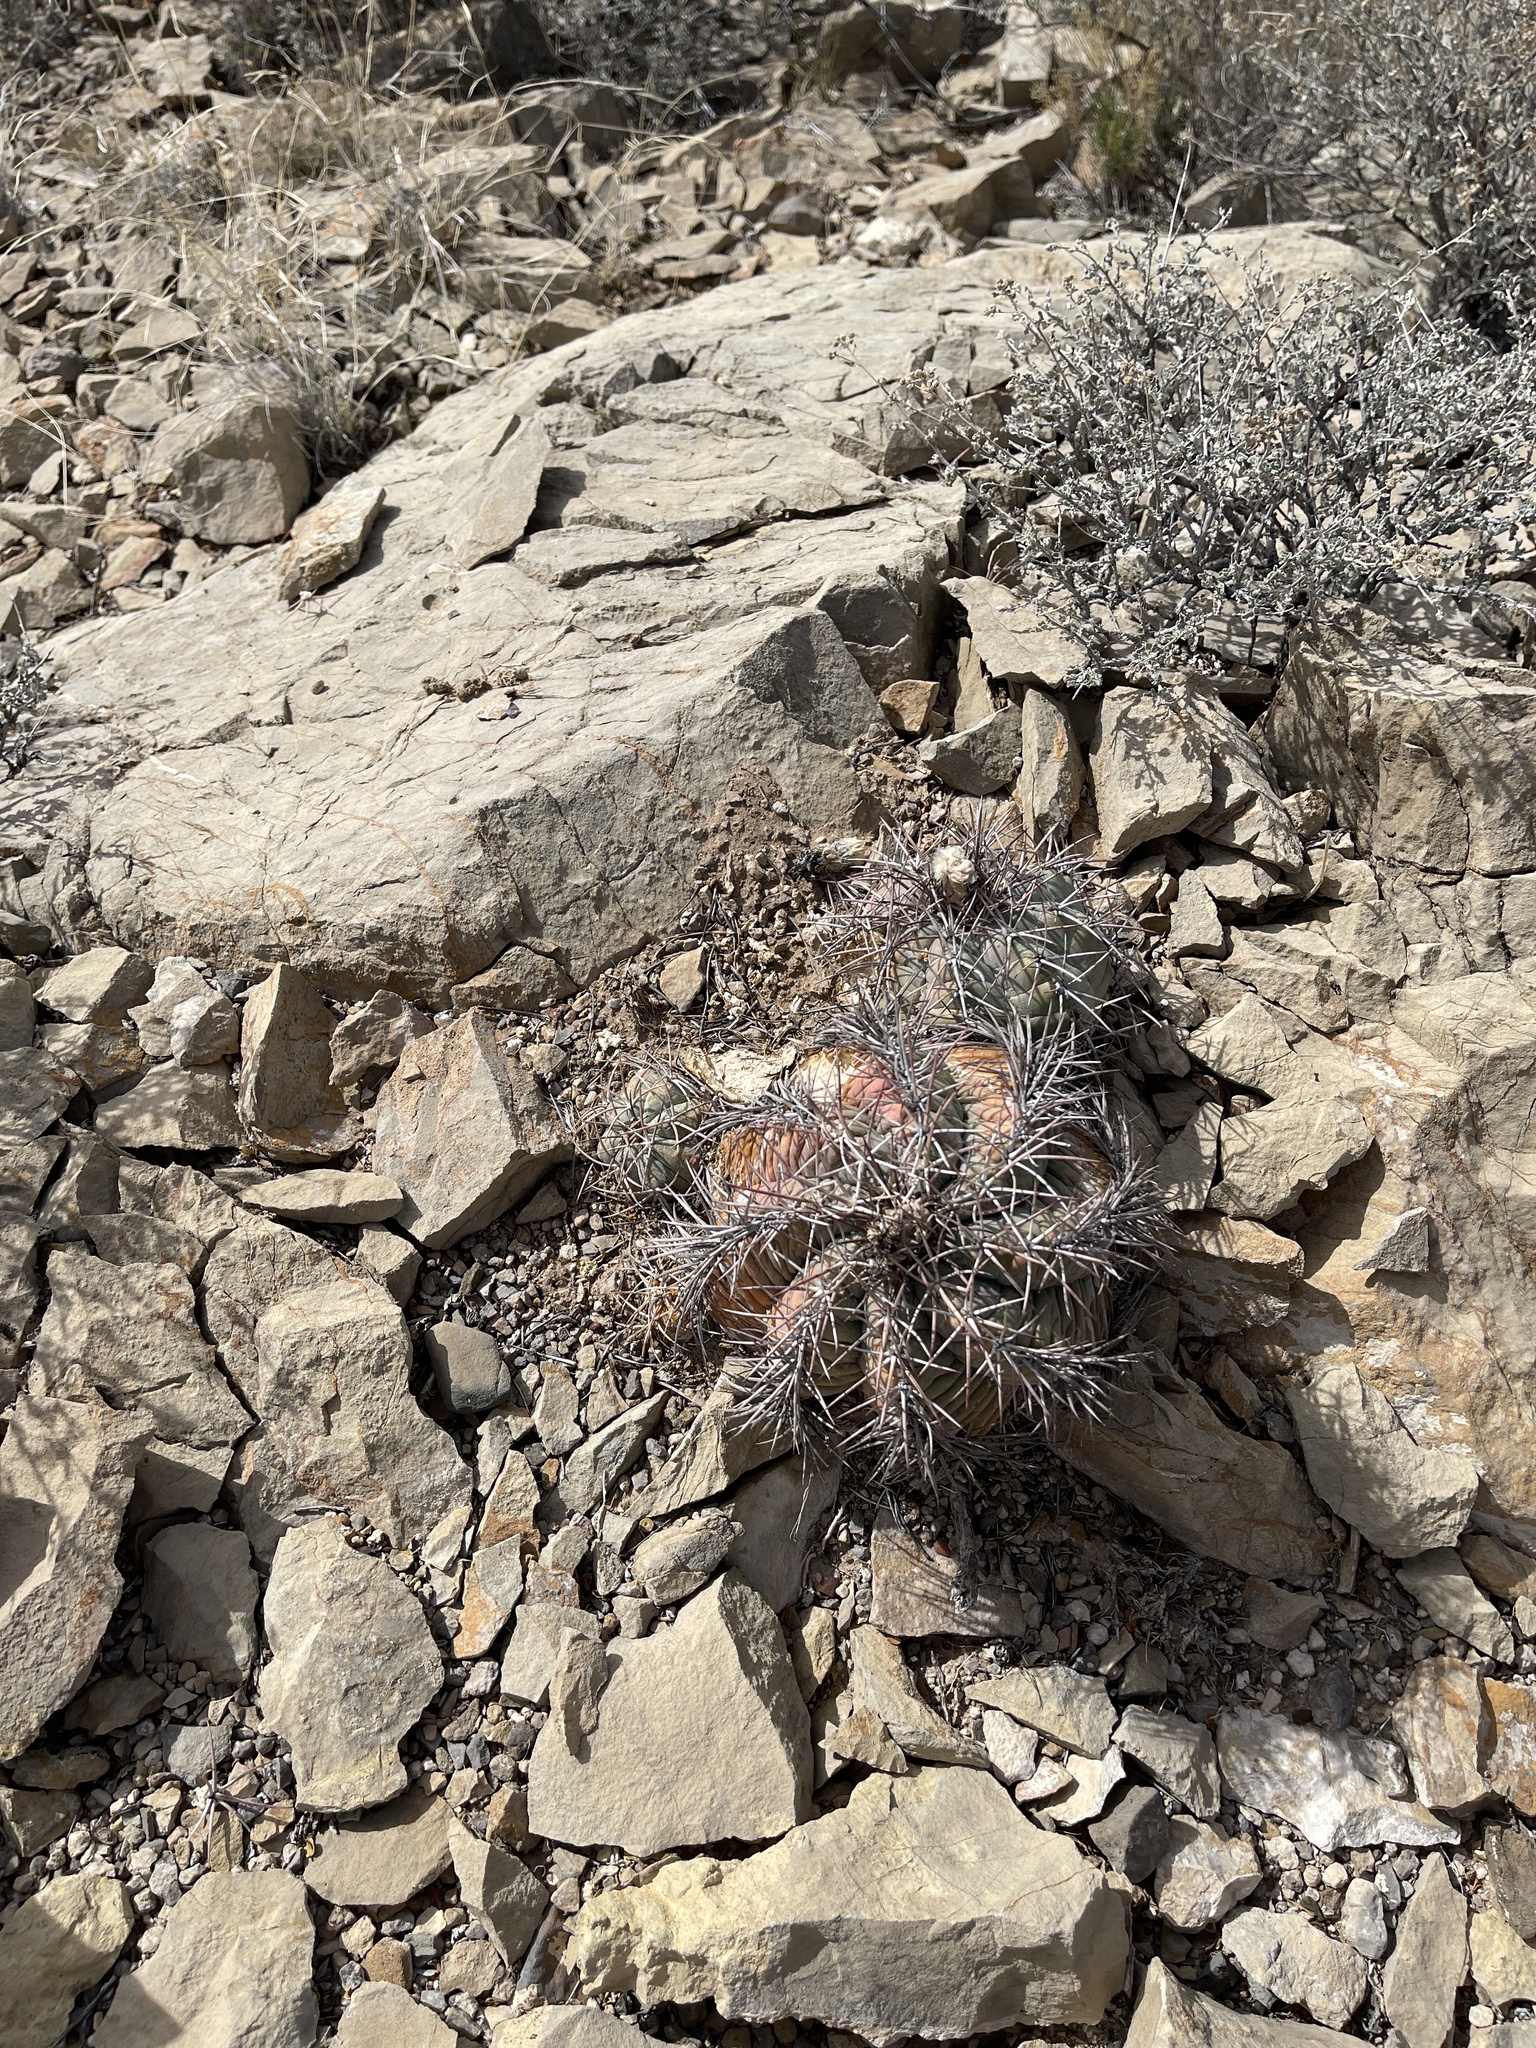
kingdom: Plantae
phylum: Tracheophyta
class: Magnoliopsida
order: Caryophyllales
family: Cactaceae
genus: Echinocactus
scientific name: Echinocactus horizonthalonius
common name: Devilshead
